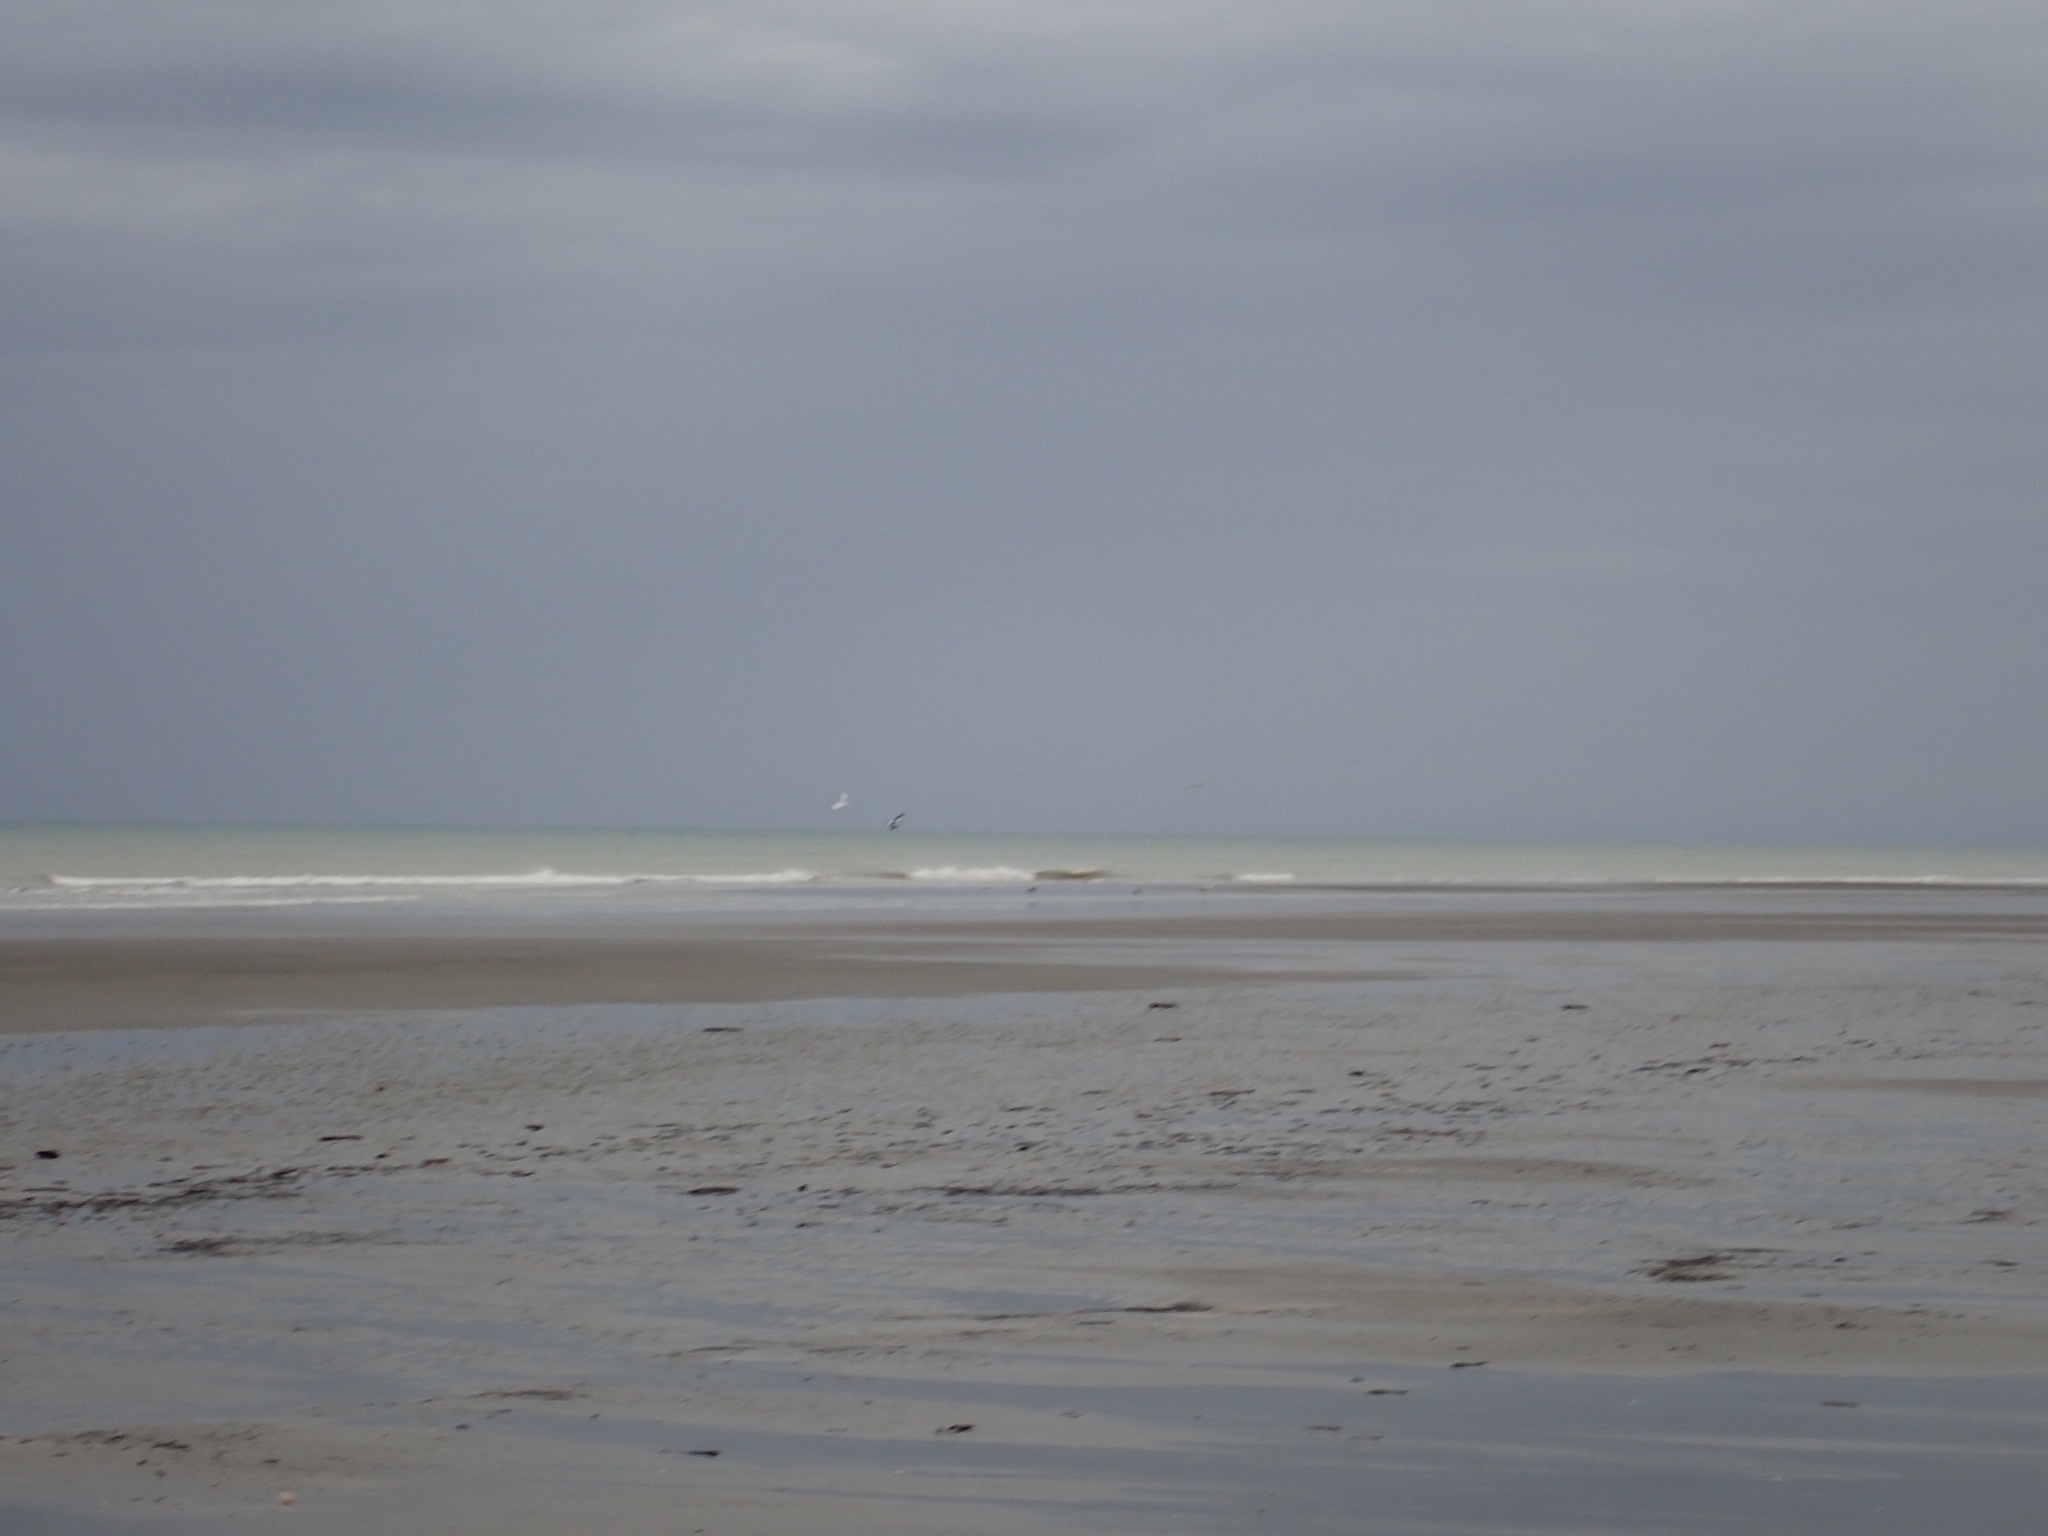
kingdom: Animalia
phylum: Chordata
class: Aves
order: Passeriformes
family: Cracticidae
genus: Gymnorhina
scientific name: Gymnorhina tibicen
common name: Australian magpie
